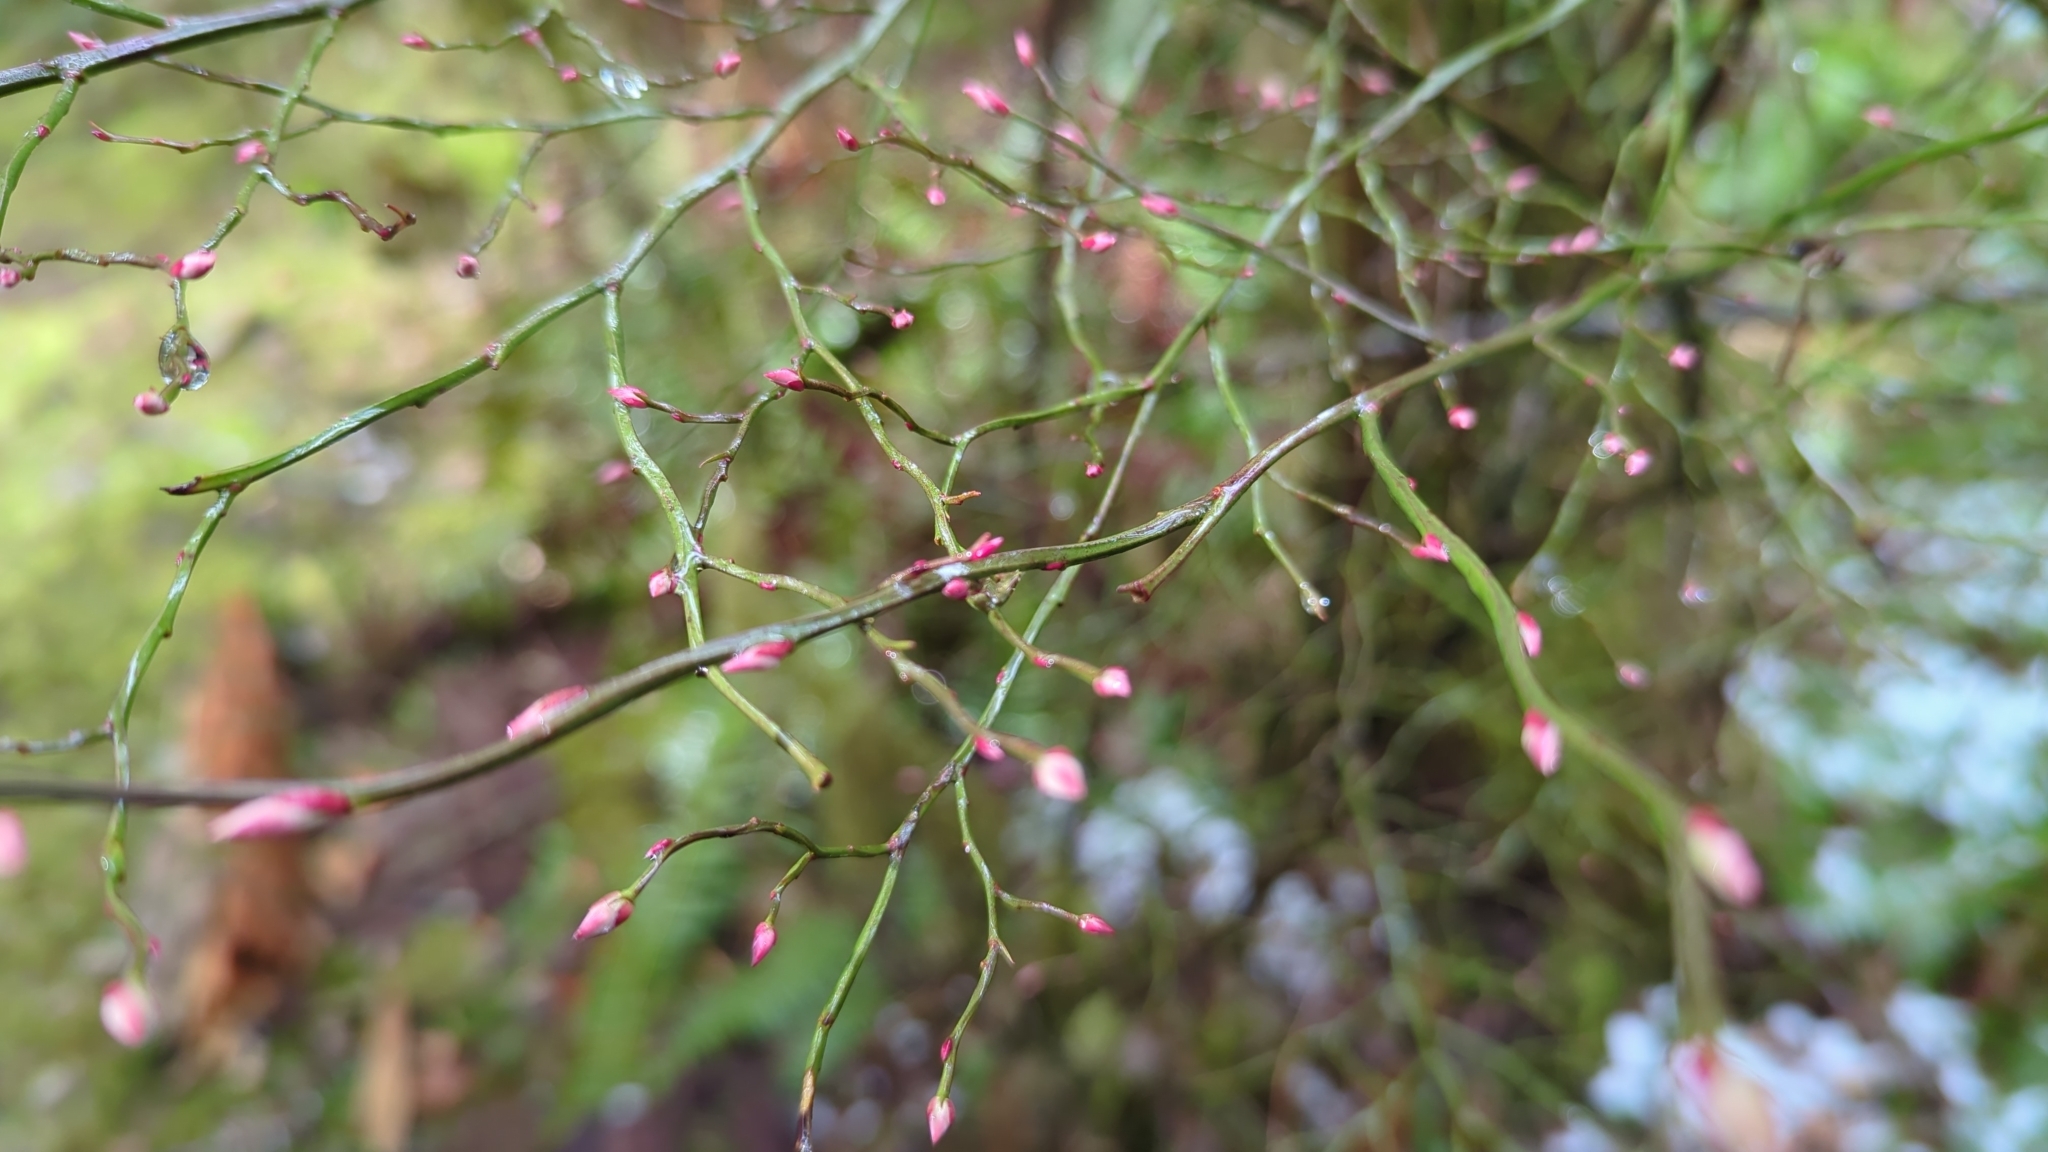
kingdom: Plantae
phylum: Tracheophyta
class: Magnoliopsida
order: Ericales
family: Ericaceae
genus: Vaccinium
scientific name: Vaccinium parvifolium
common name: Red-huckleberry
